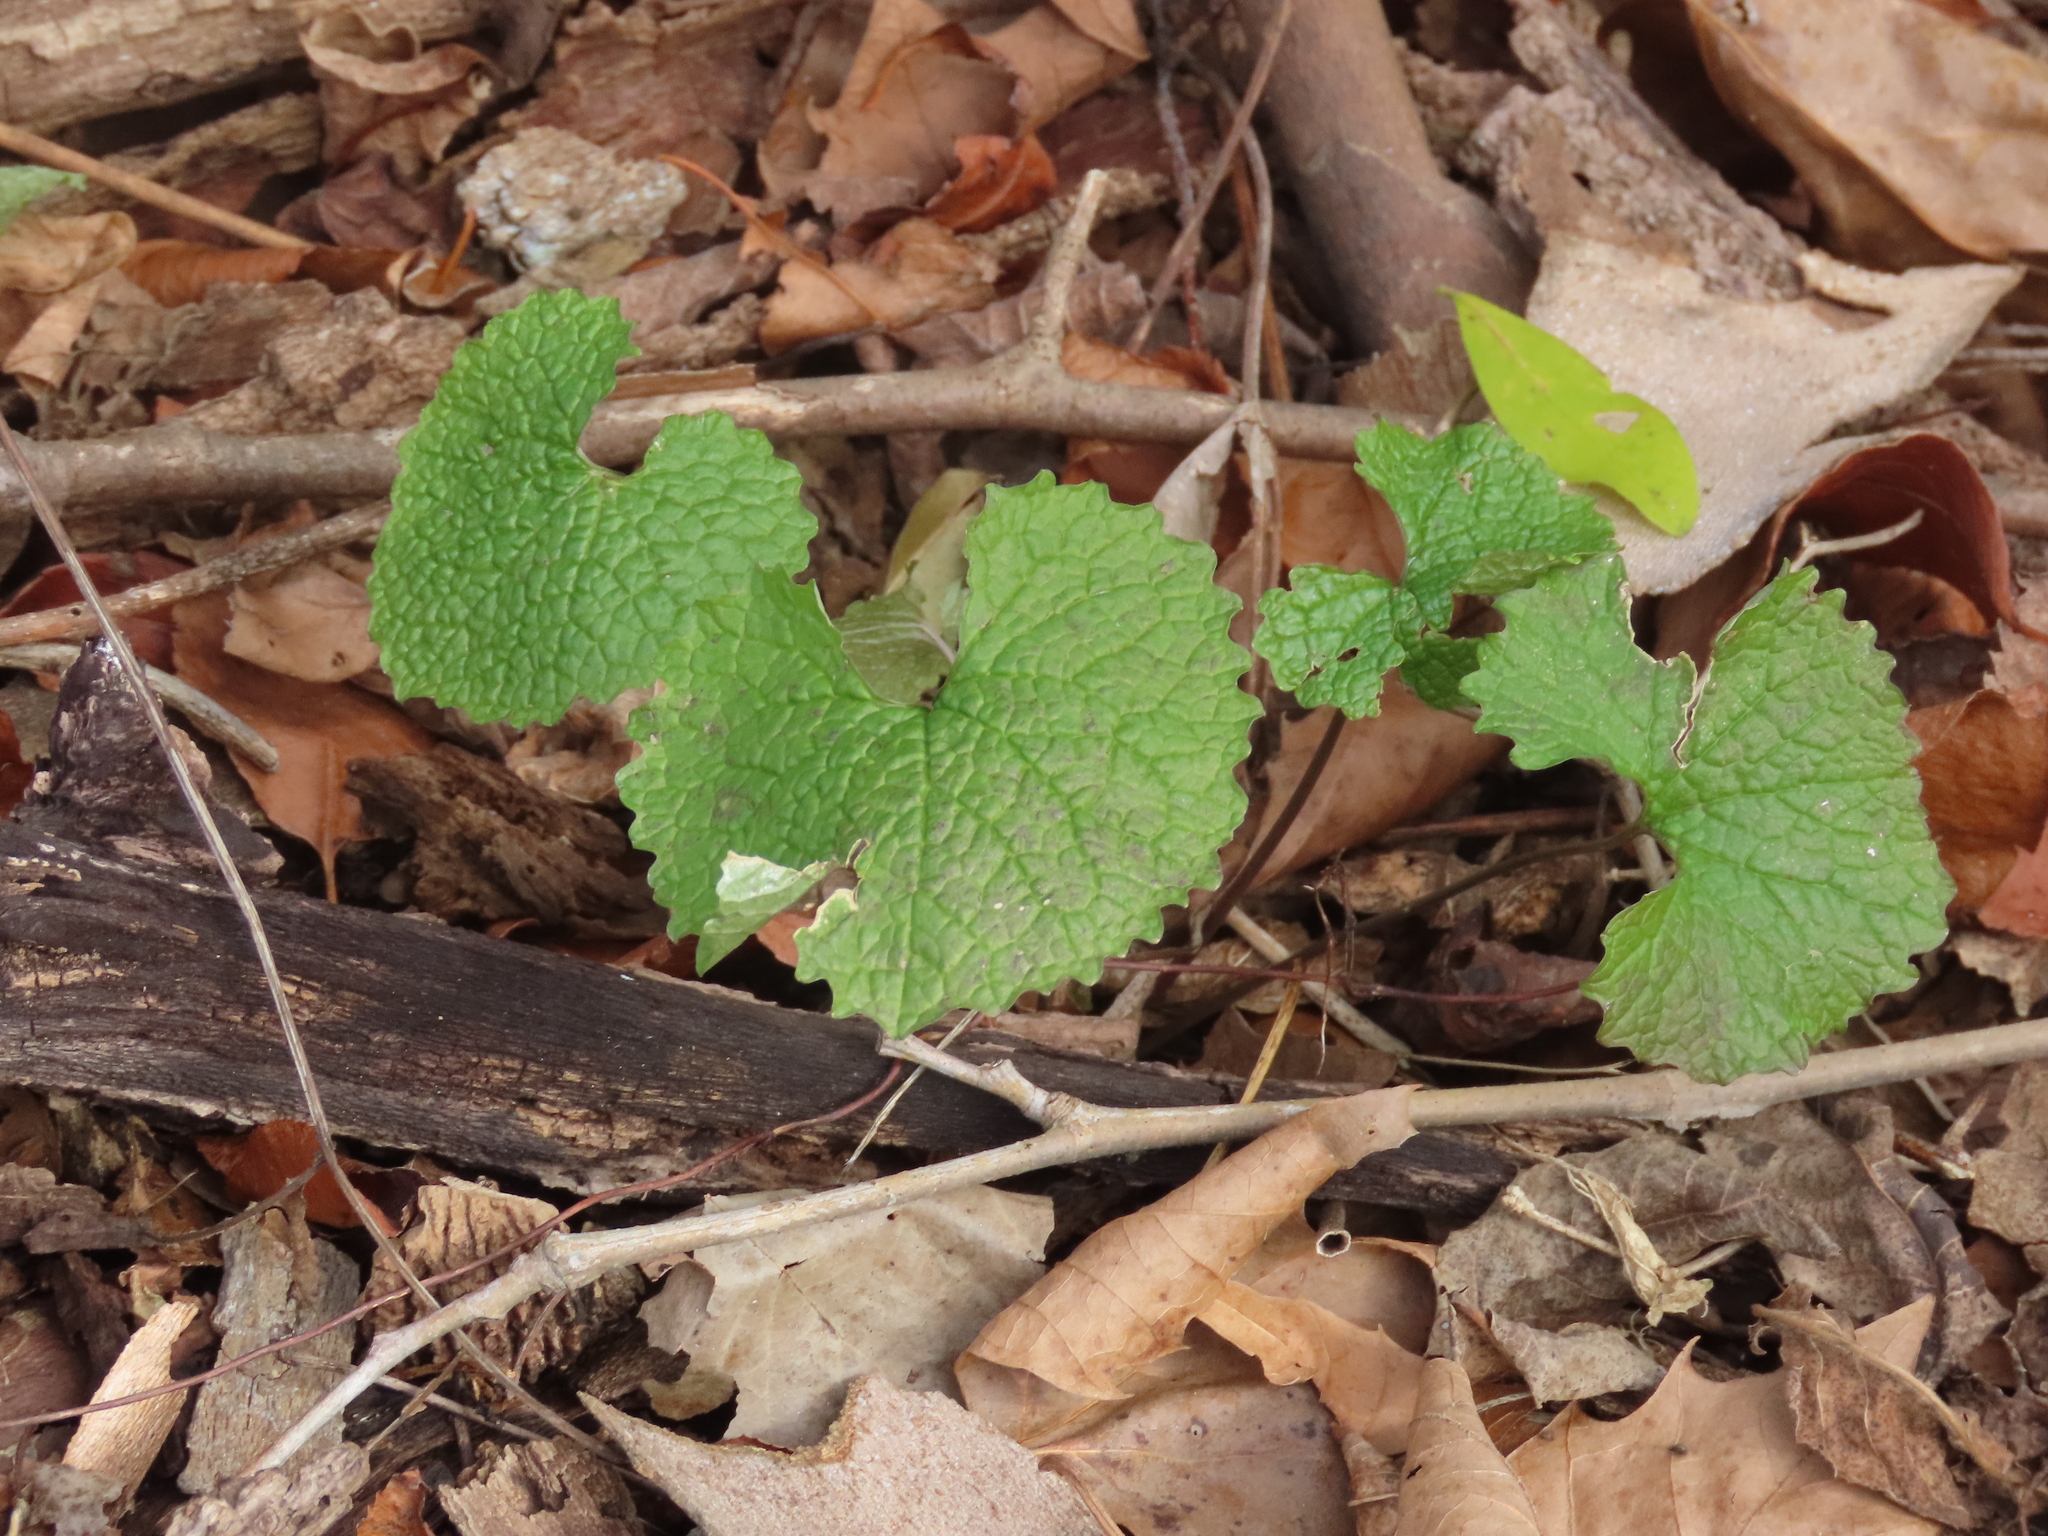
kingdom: Plantae
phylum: Tracheophyta
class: Magnoliopsida
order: Brassicales
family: Brassicaceae
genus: Alliaria
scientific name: Alliaria petiolata
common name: Garlic mustard
